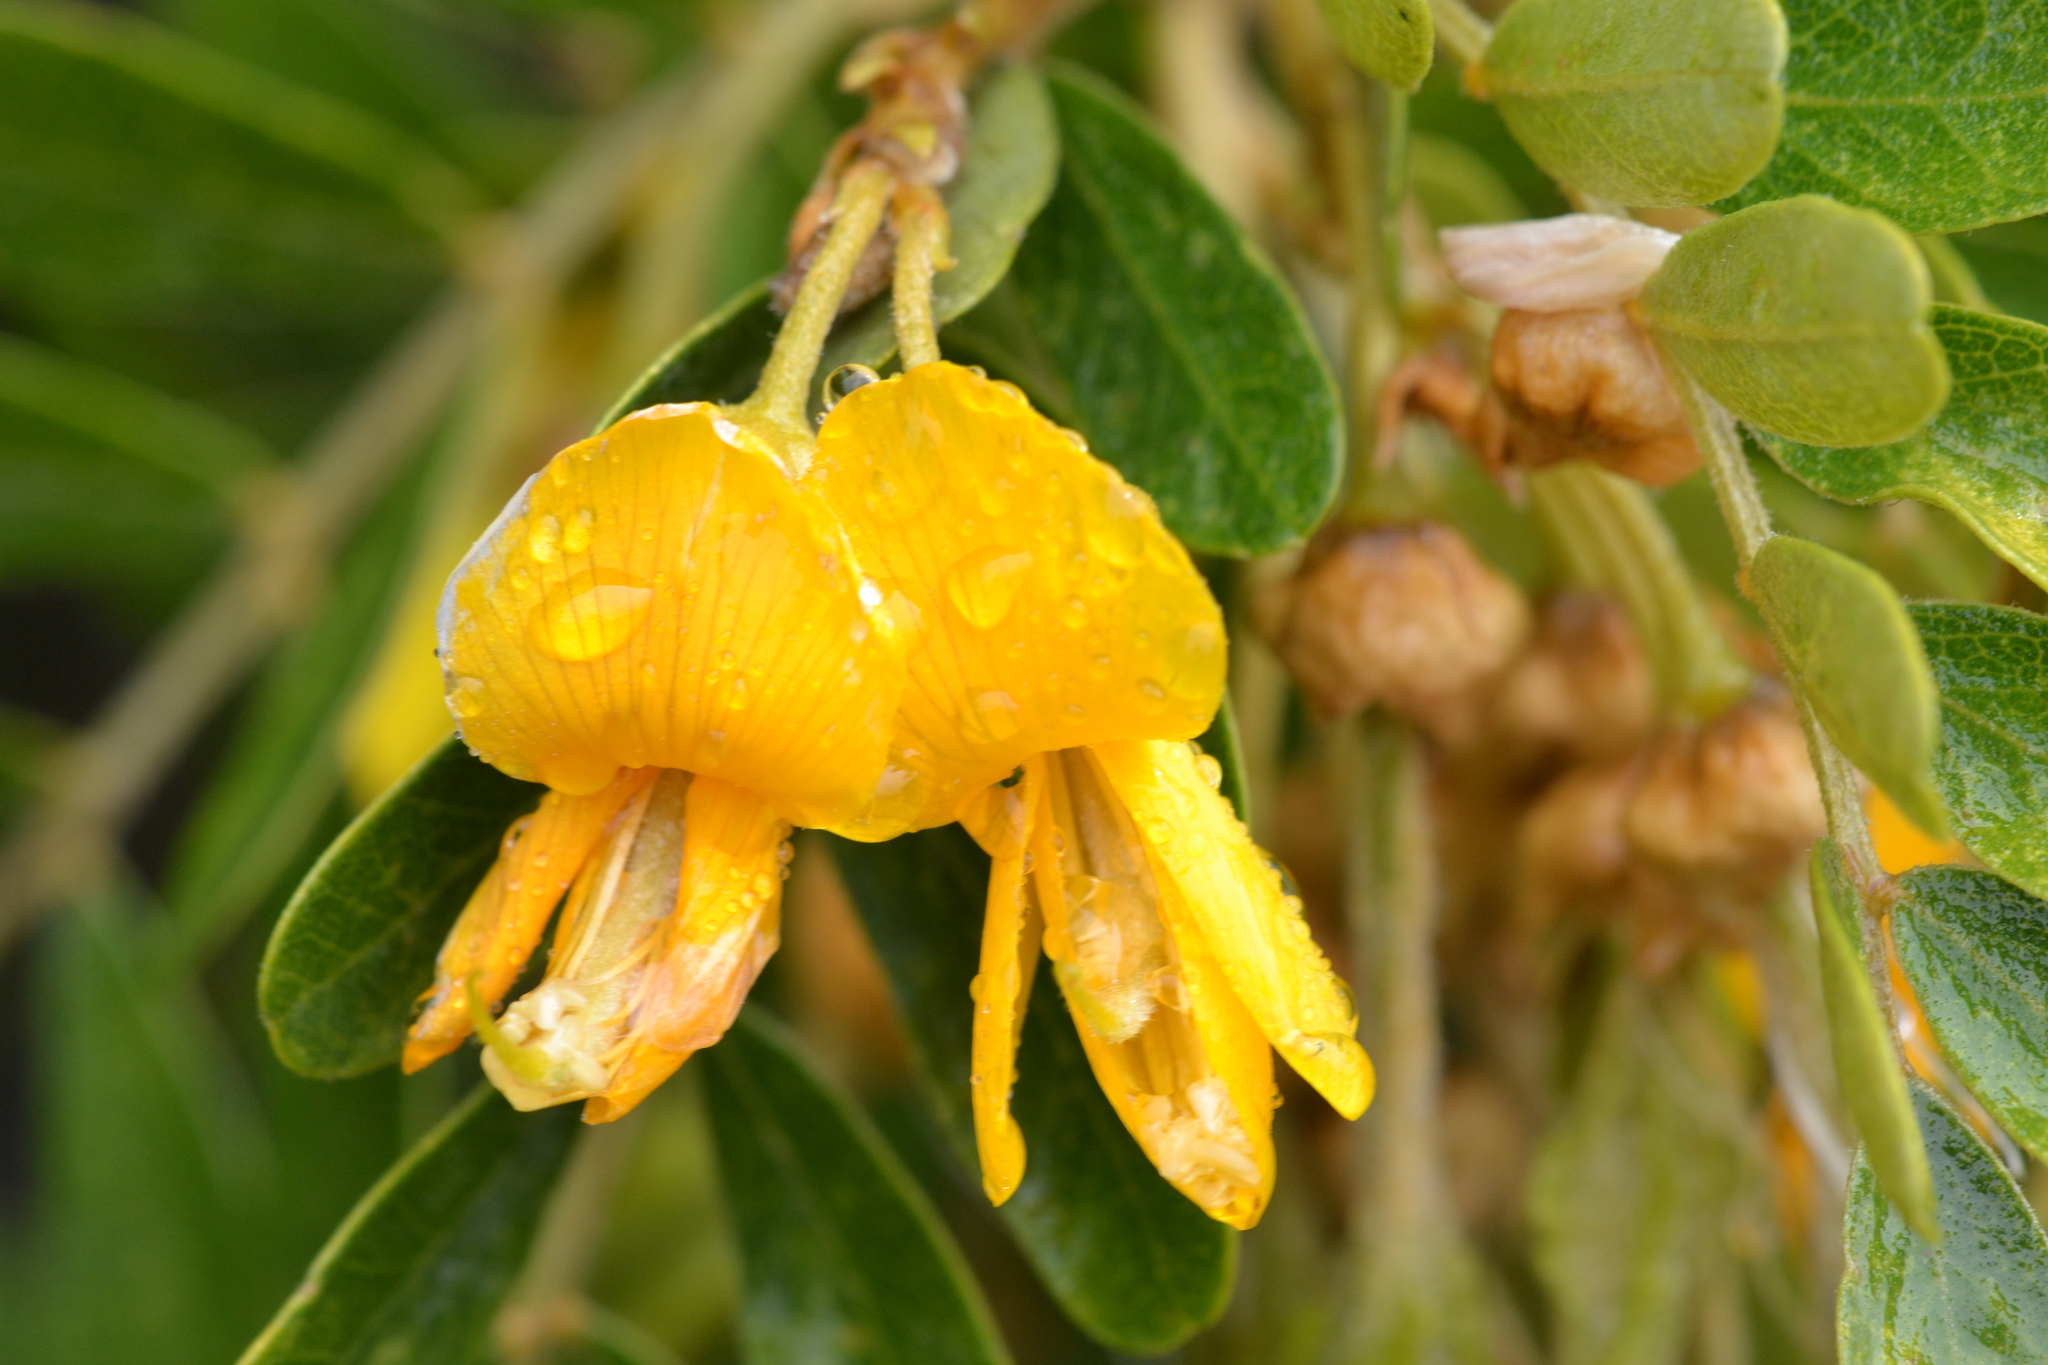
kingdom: Plantae
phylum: Tracheophyta
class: Magnoliopsida
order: Fabales
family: Fabaceae
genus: Sophora
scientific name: Sophora chrysophylla
